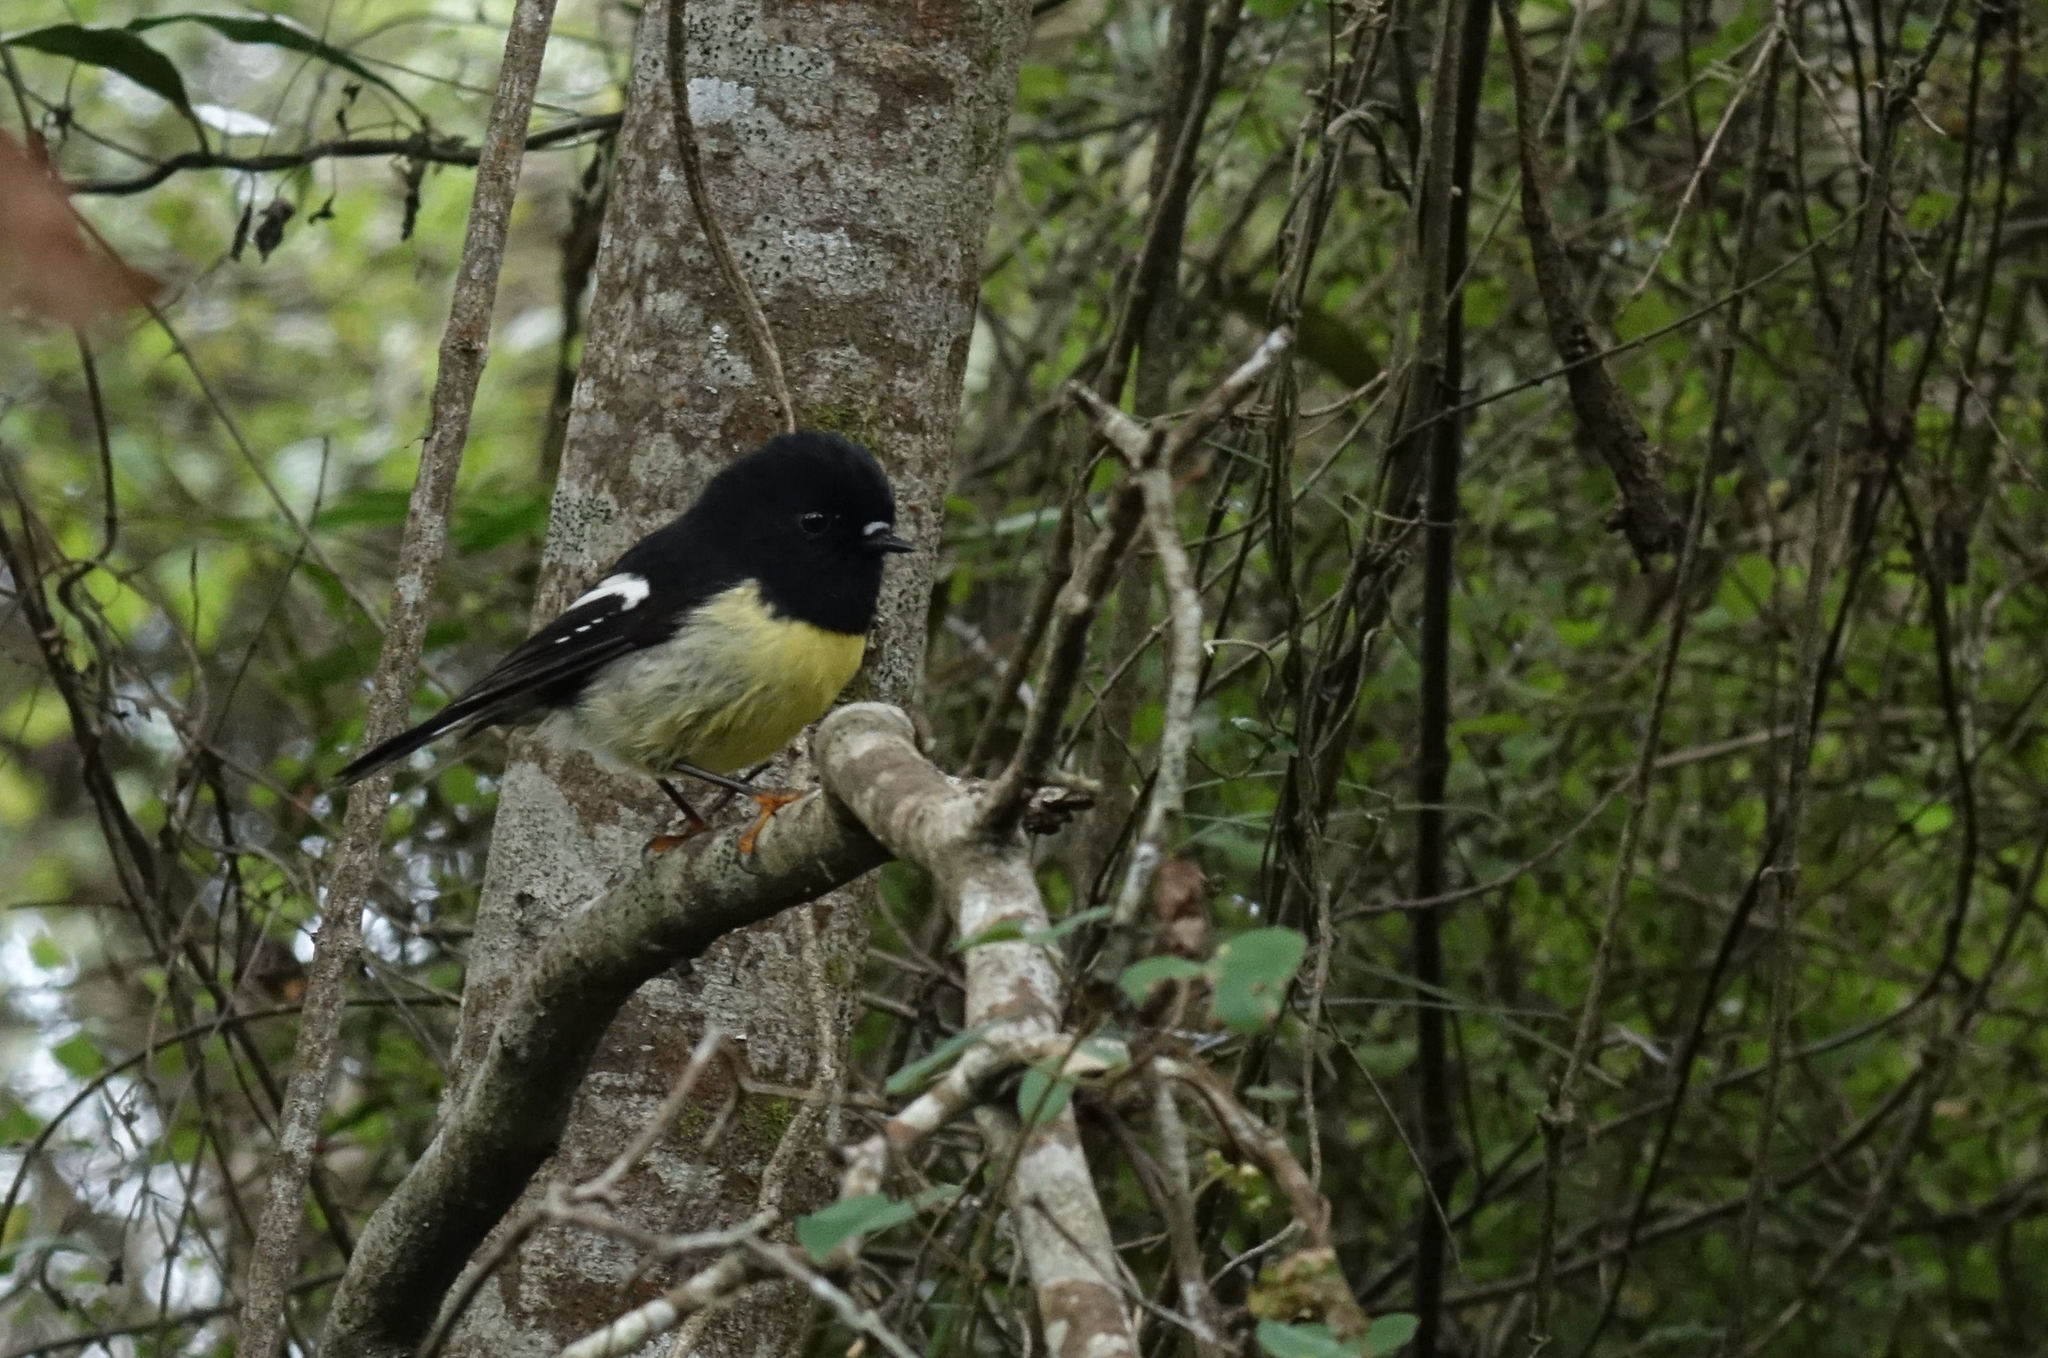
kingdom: Animalia
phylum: Chordata
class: Aves
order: Passeriformes
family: Petroicidae
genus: Petroica
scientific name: Petroica macrocephala
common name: Tomtit
